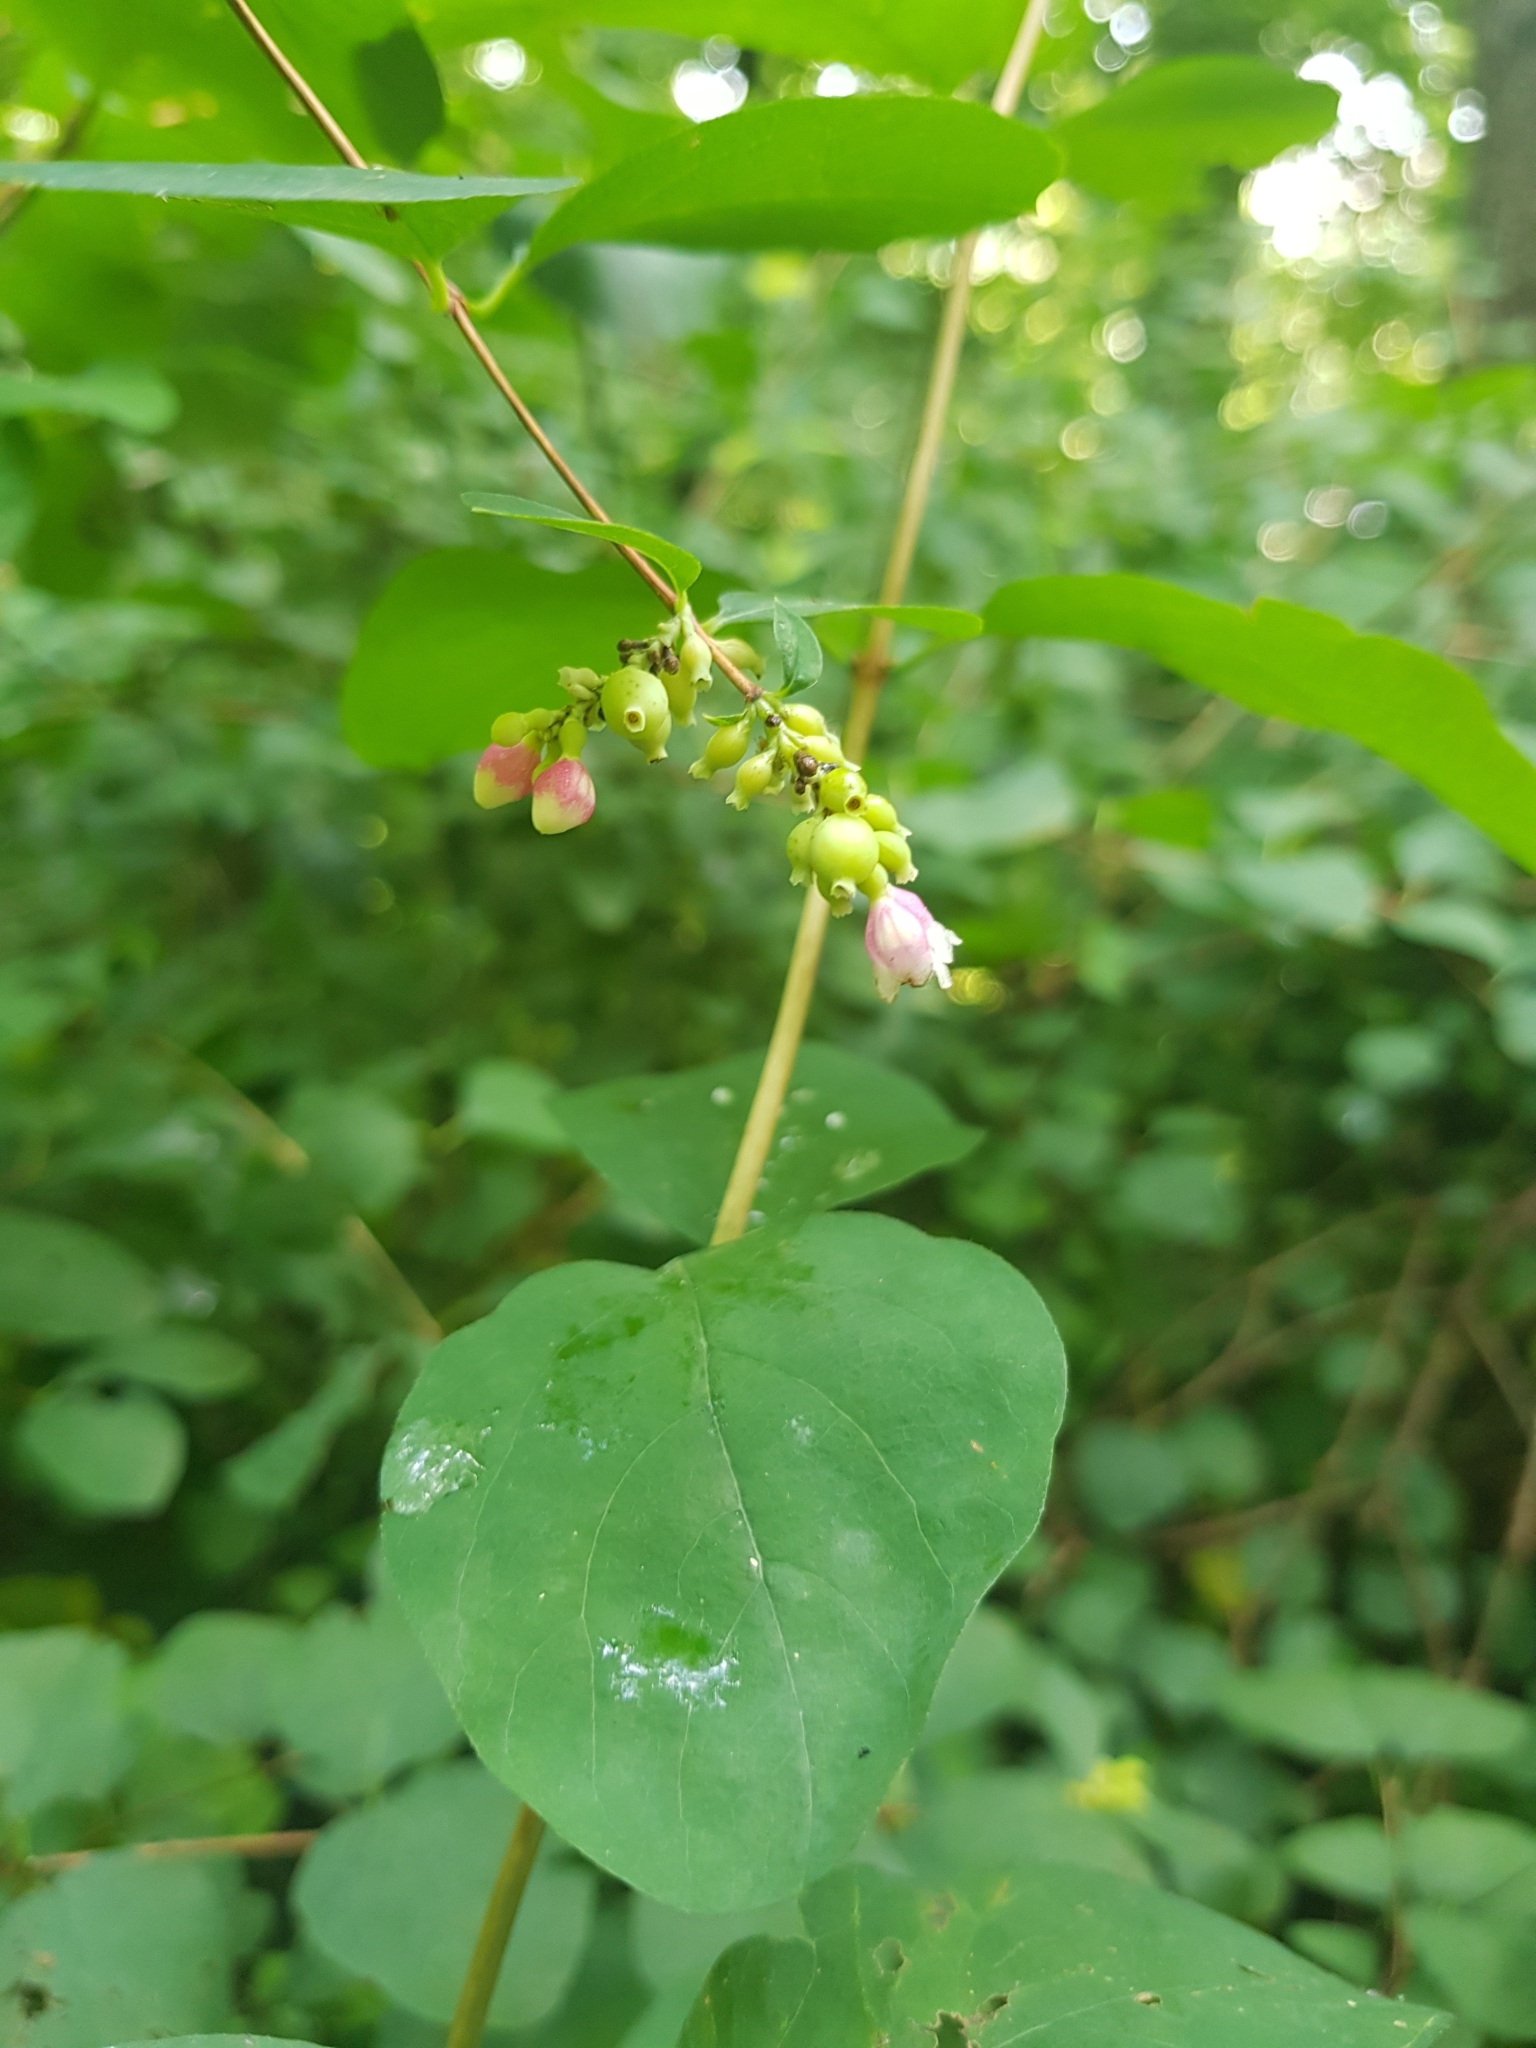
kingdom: Plantae
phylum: Tracheophyta
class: Magnoliopsida
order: Dipsacales
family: Caprifoliaceae
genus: Symphoricarpos
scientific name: Symphoricarpos albus
